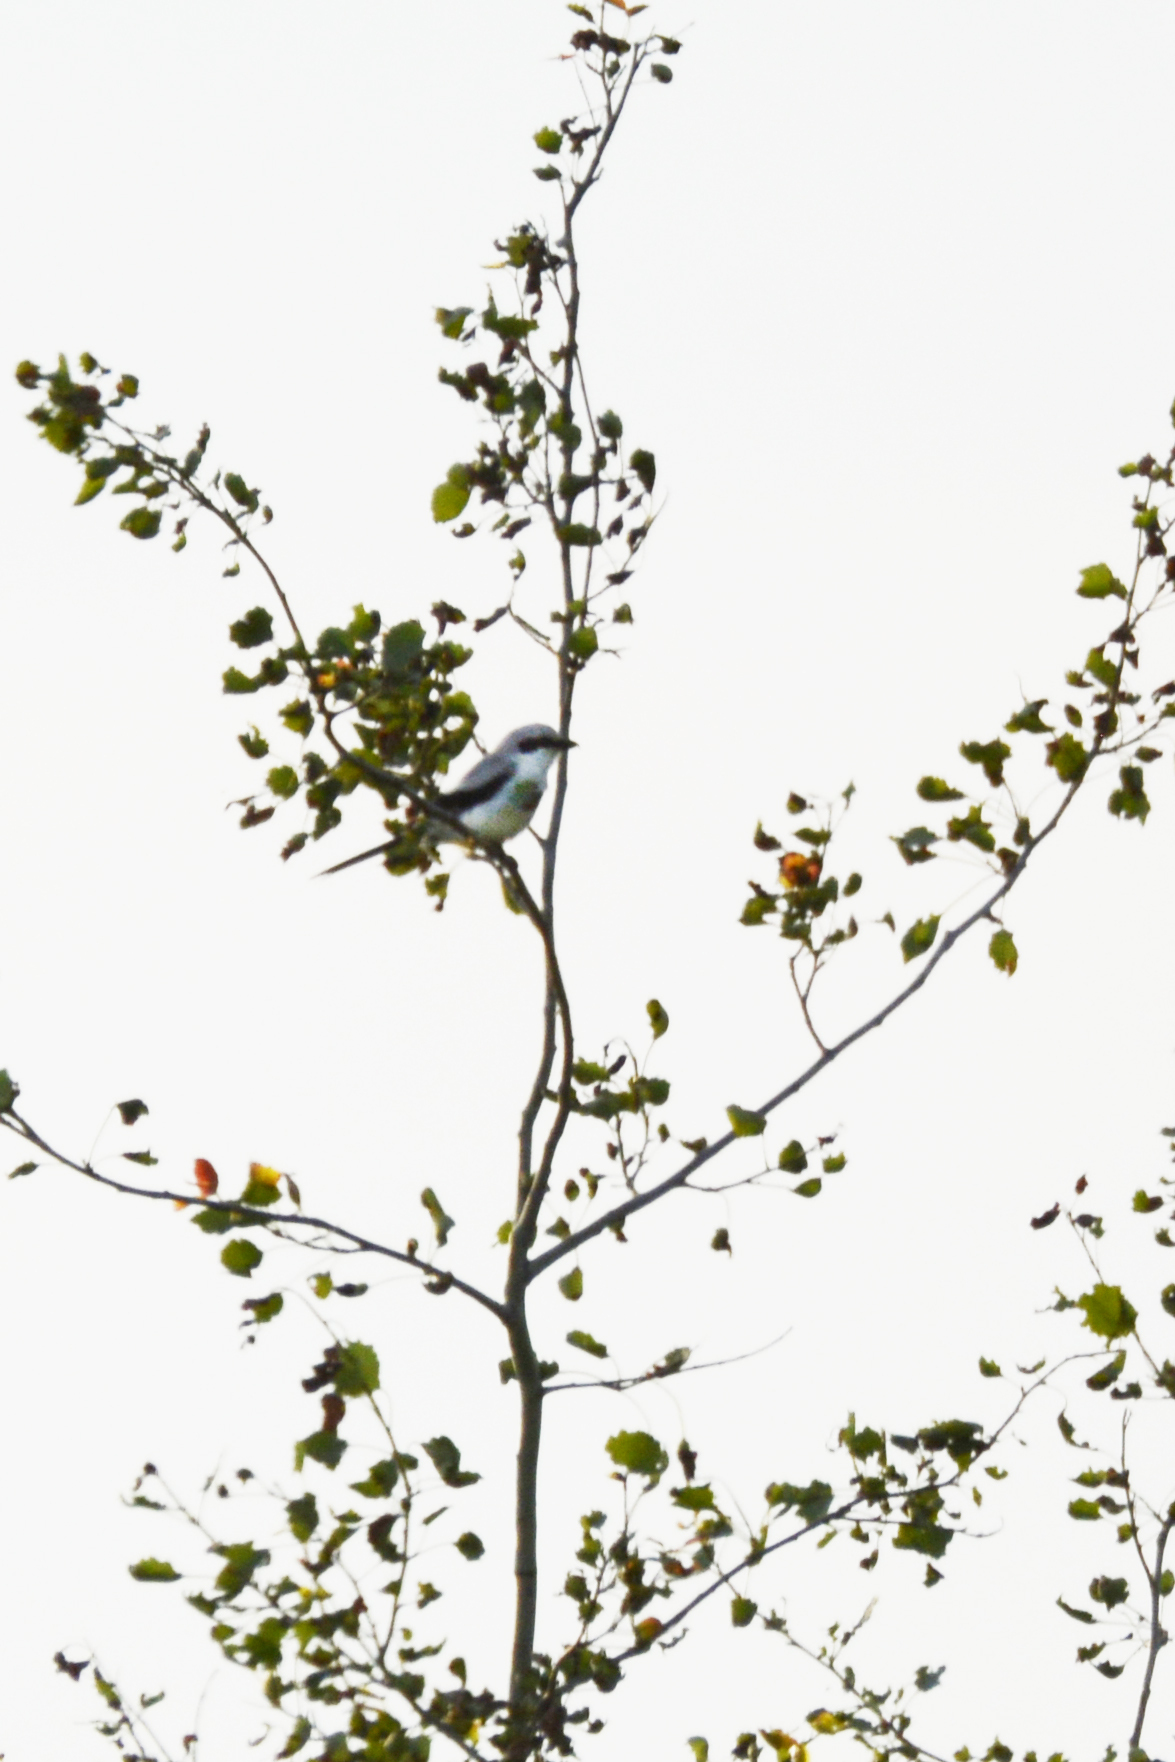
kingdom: Animalia
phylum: Chordata
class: Aves
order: Passeriformes
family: Laniidae
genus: Lanius
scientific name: Lanius excubitor
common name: Great grey shrike
